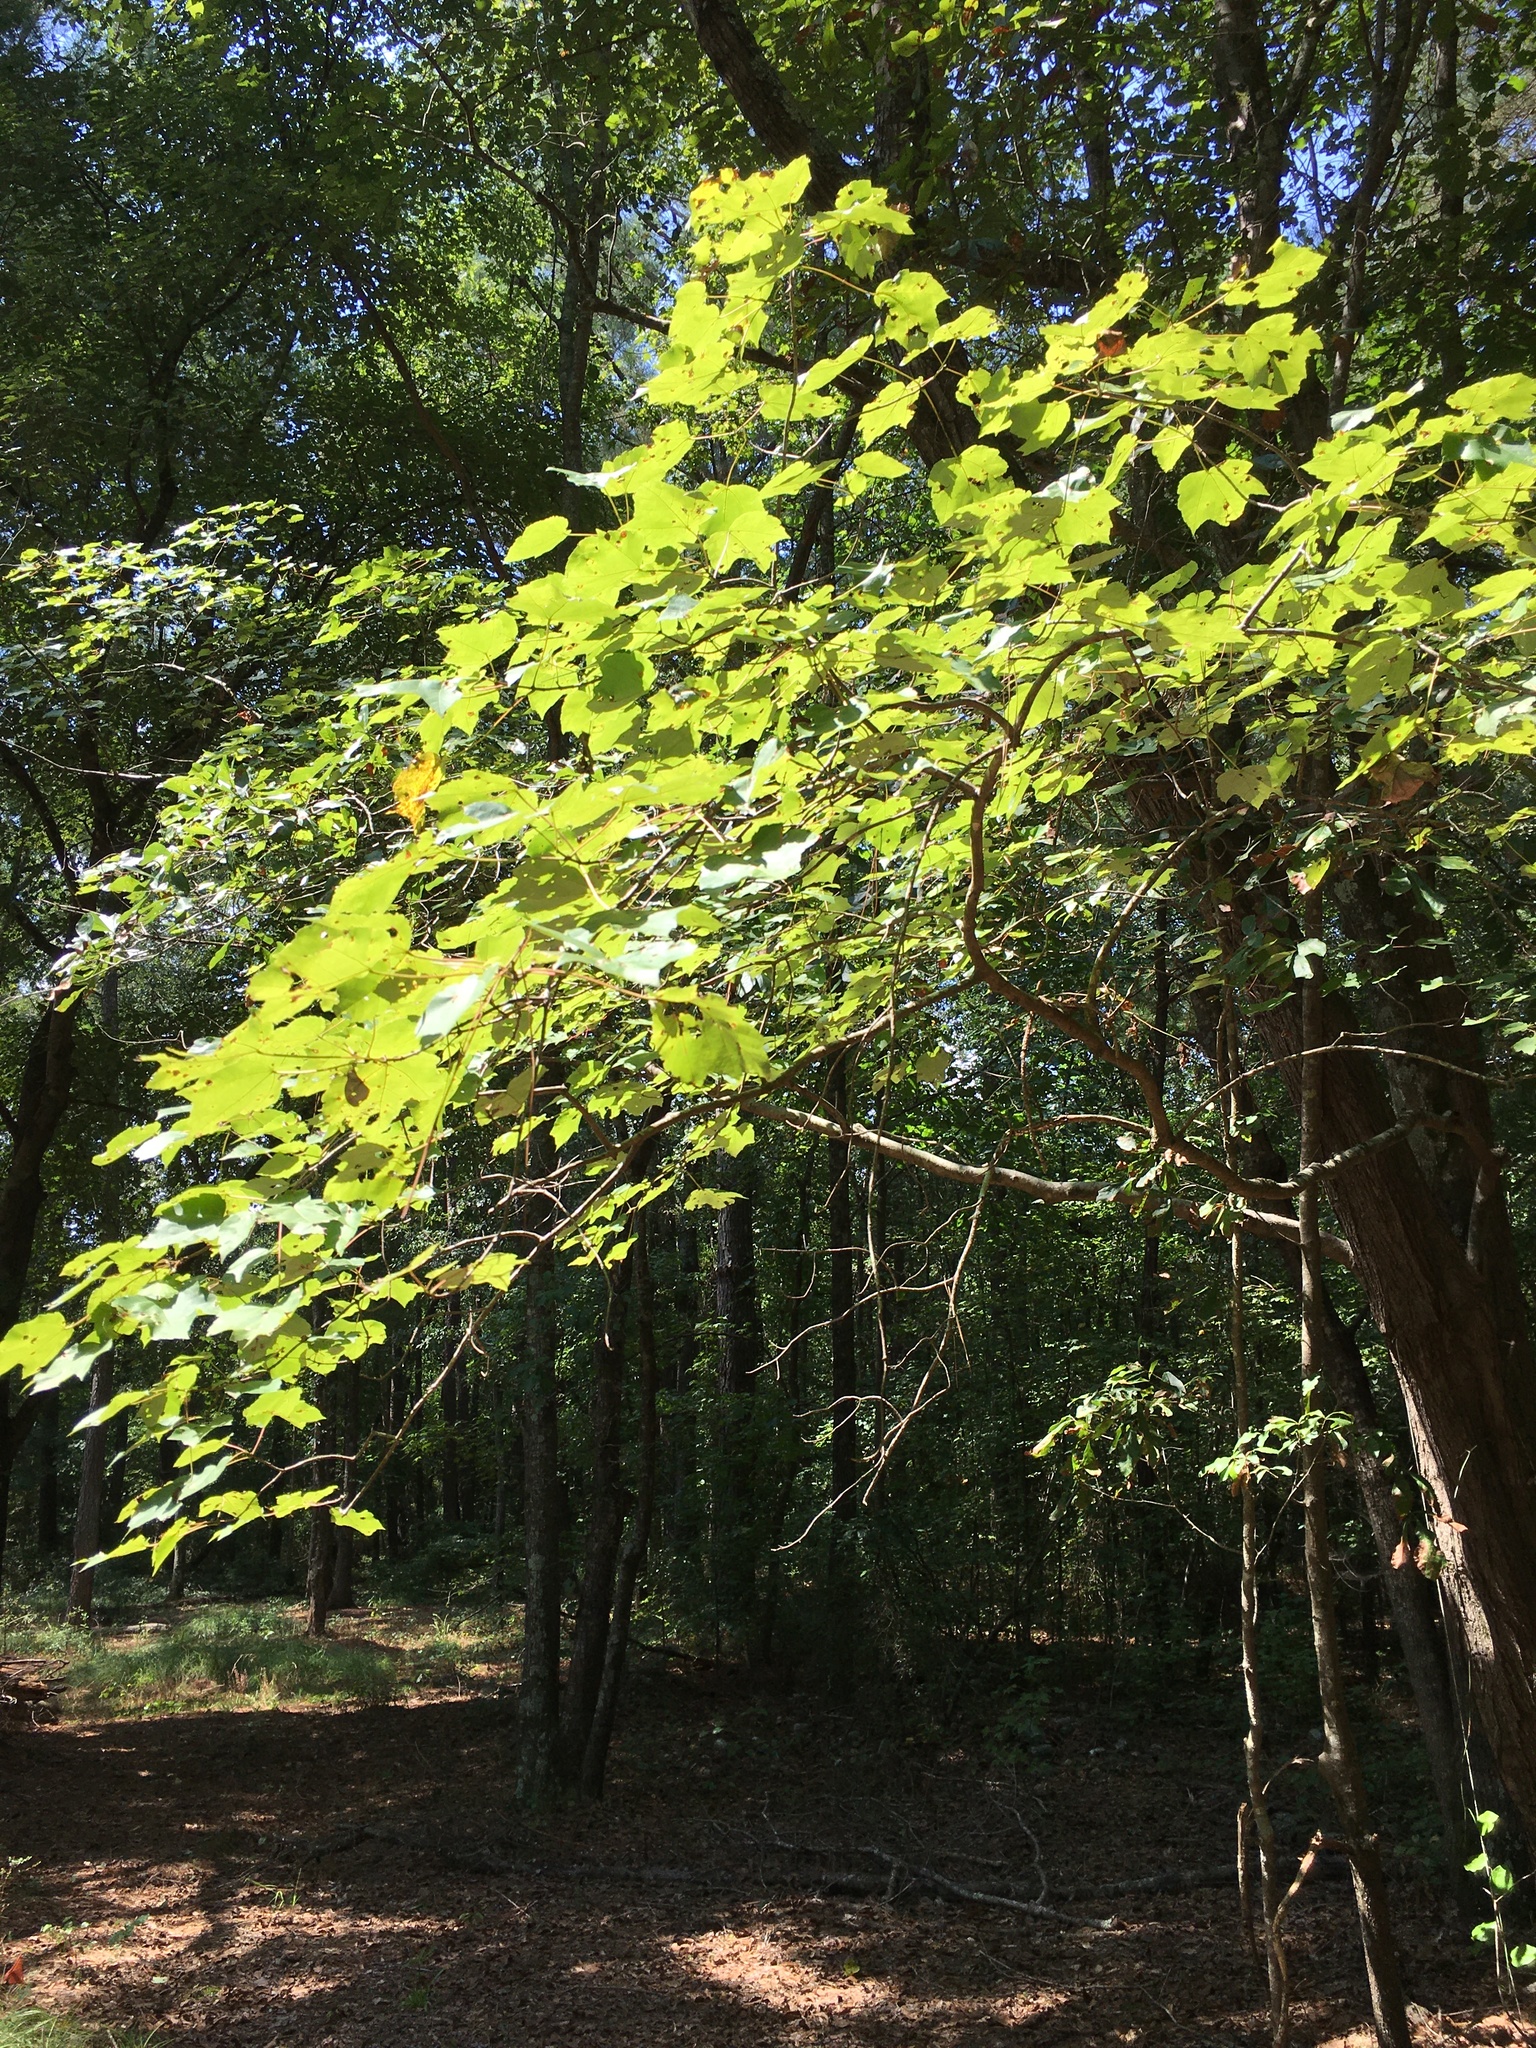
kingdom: Plantae
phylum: Tracheophyta
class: Magnoliopsida
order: Sapindales
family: Sapindaceae
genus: Acer
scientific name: Acer rubrum
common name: Red maple
